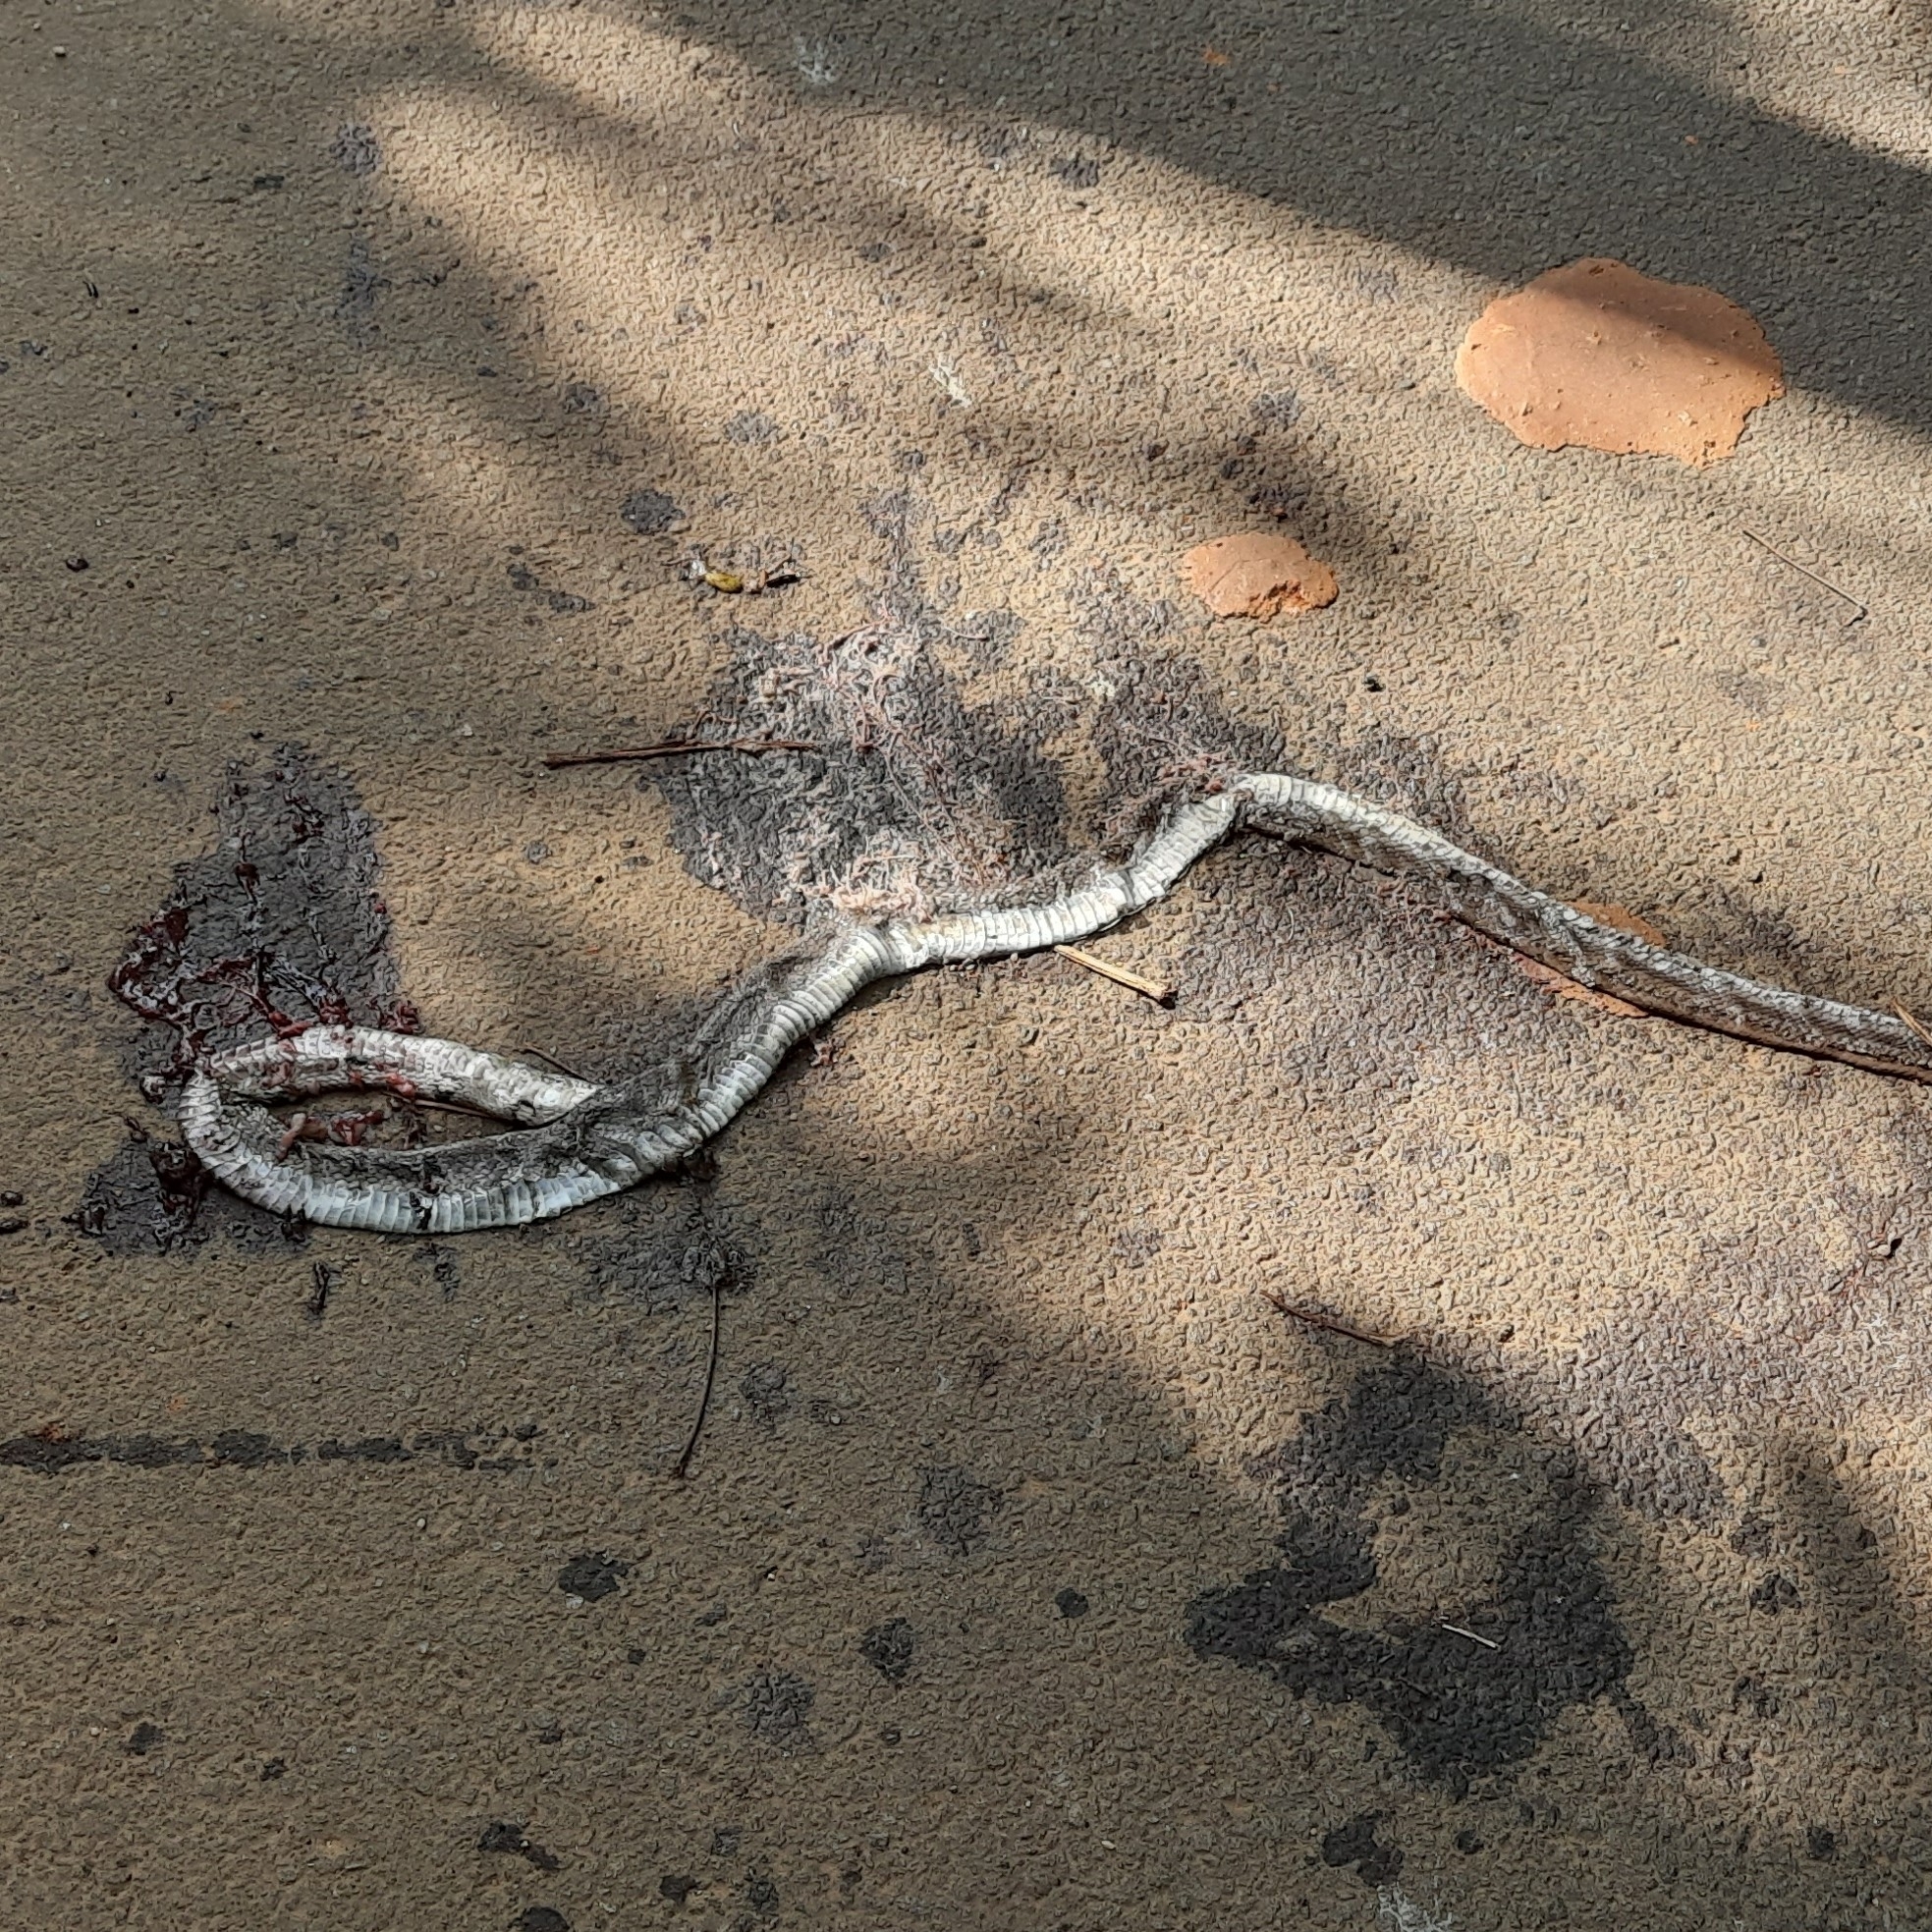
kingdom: Animalia
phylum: Chordata
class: Squamata
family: Colubridae
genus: Coelognathus
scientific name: Coelognathus helena
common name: Trinket snake
